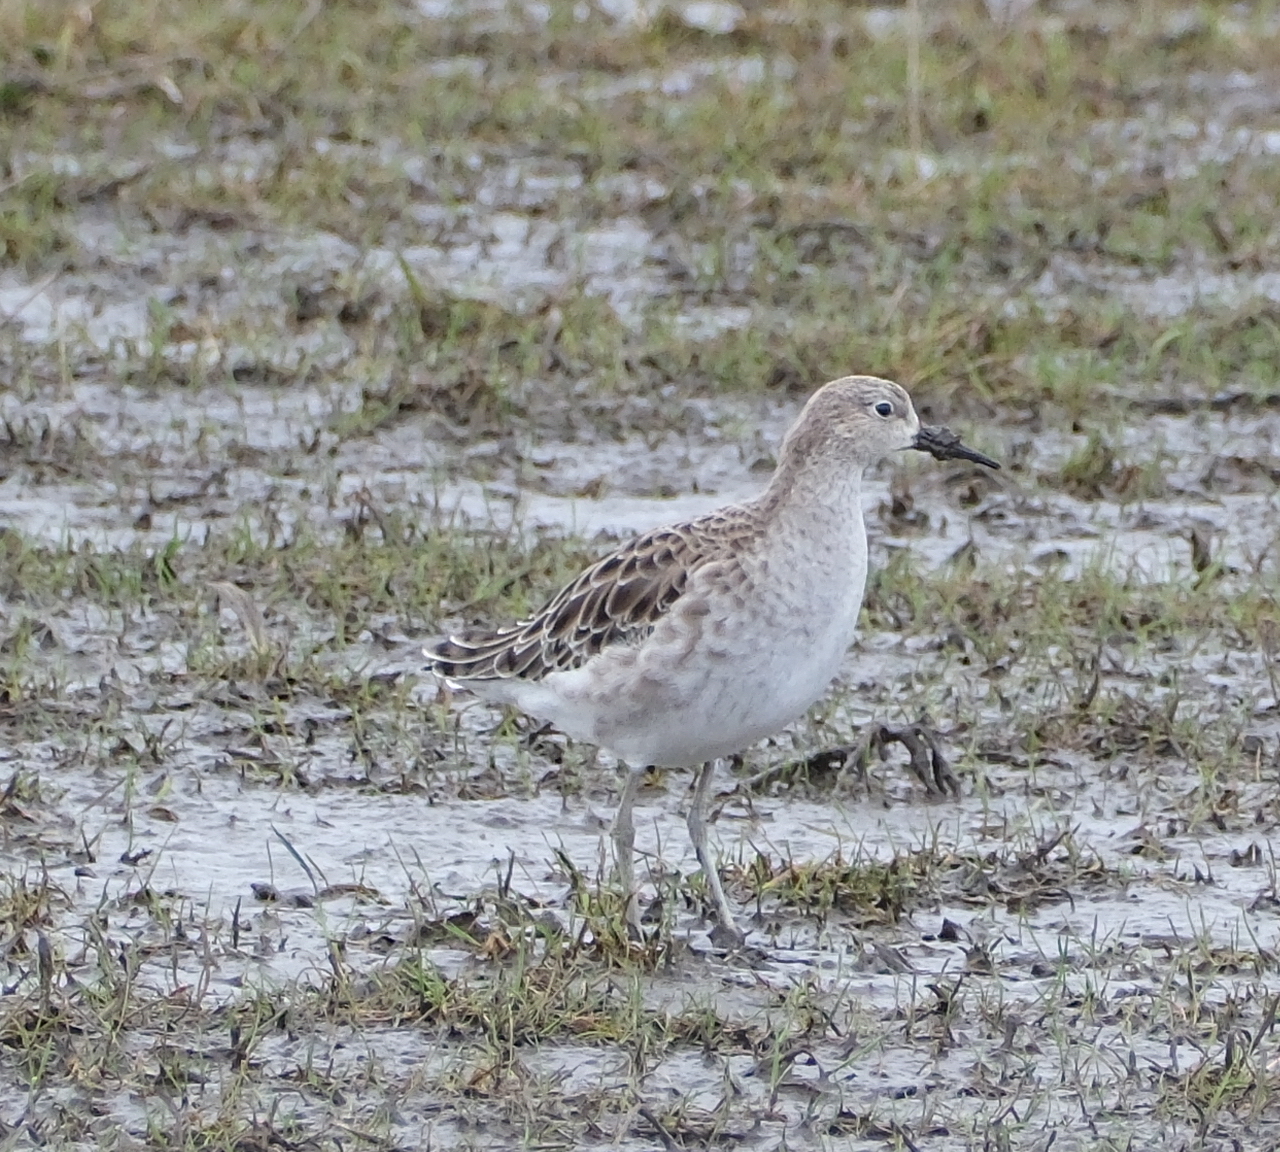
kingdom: Animalia
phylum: Chordata
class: Aves
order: Charadriiformes
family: Scolopacidae
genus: Calidris
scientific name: Calidris pugnax
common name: Ruff
